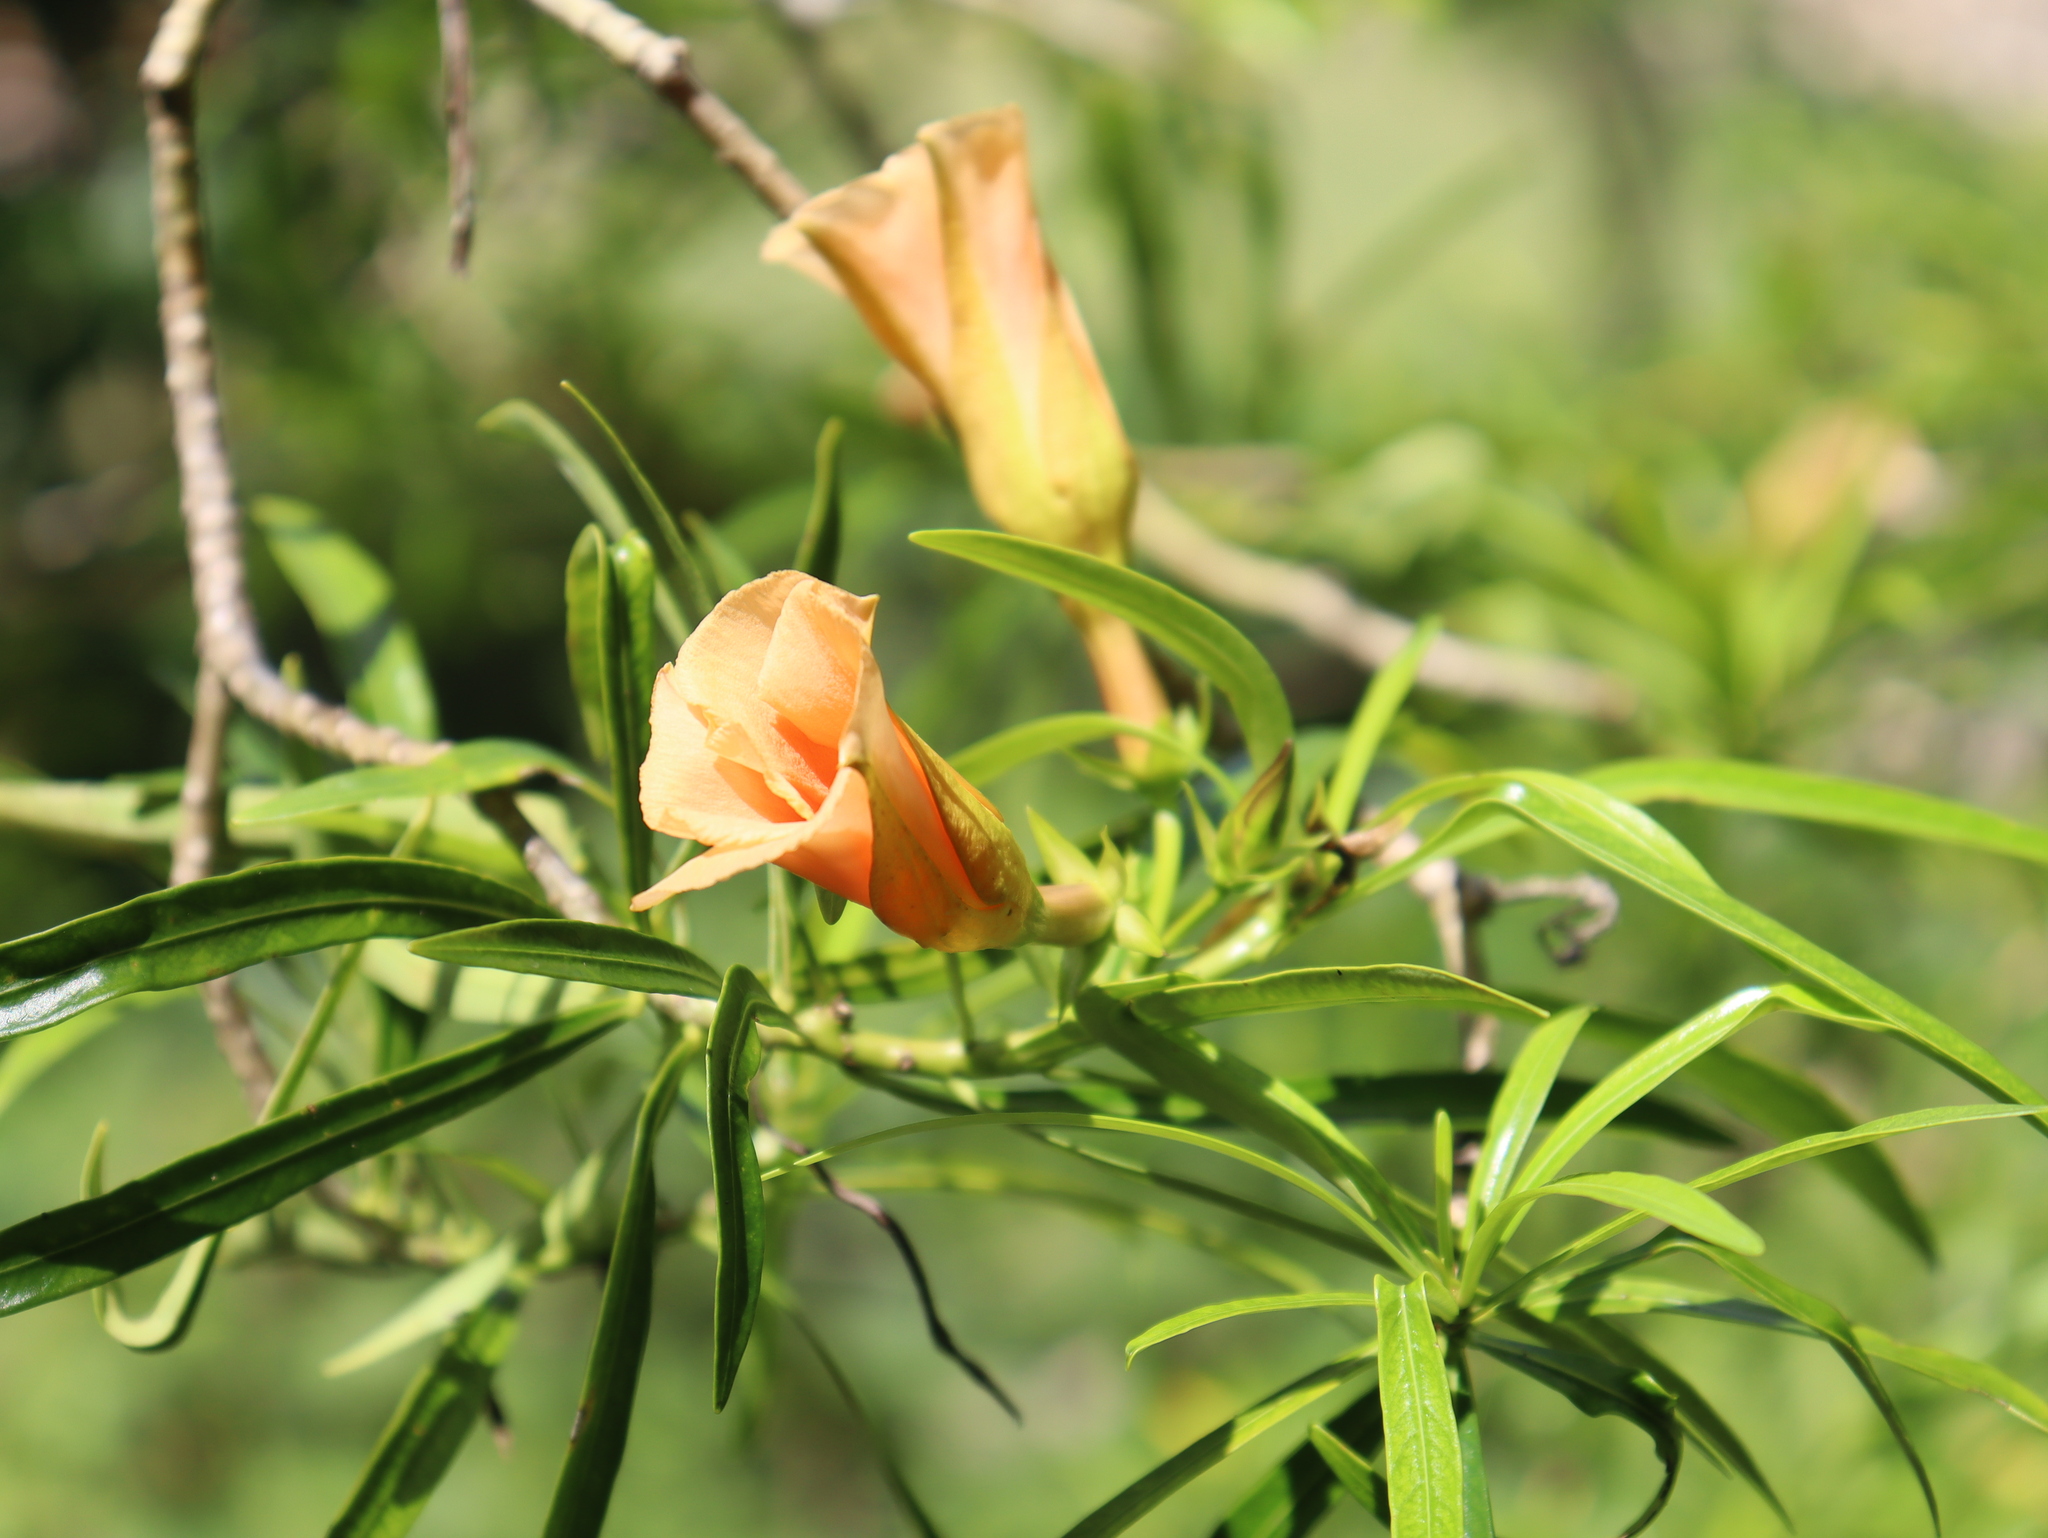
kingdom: Plantae
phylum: Tracheophyta
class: Magnoliopsida
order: Gentianales
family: Apocynaceae
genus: Cascabela
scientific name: Cascabela thevetia
